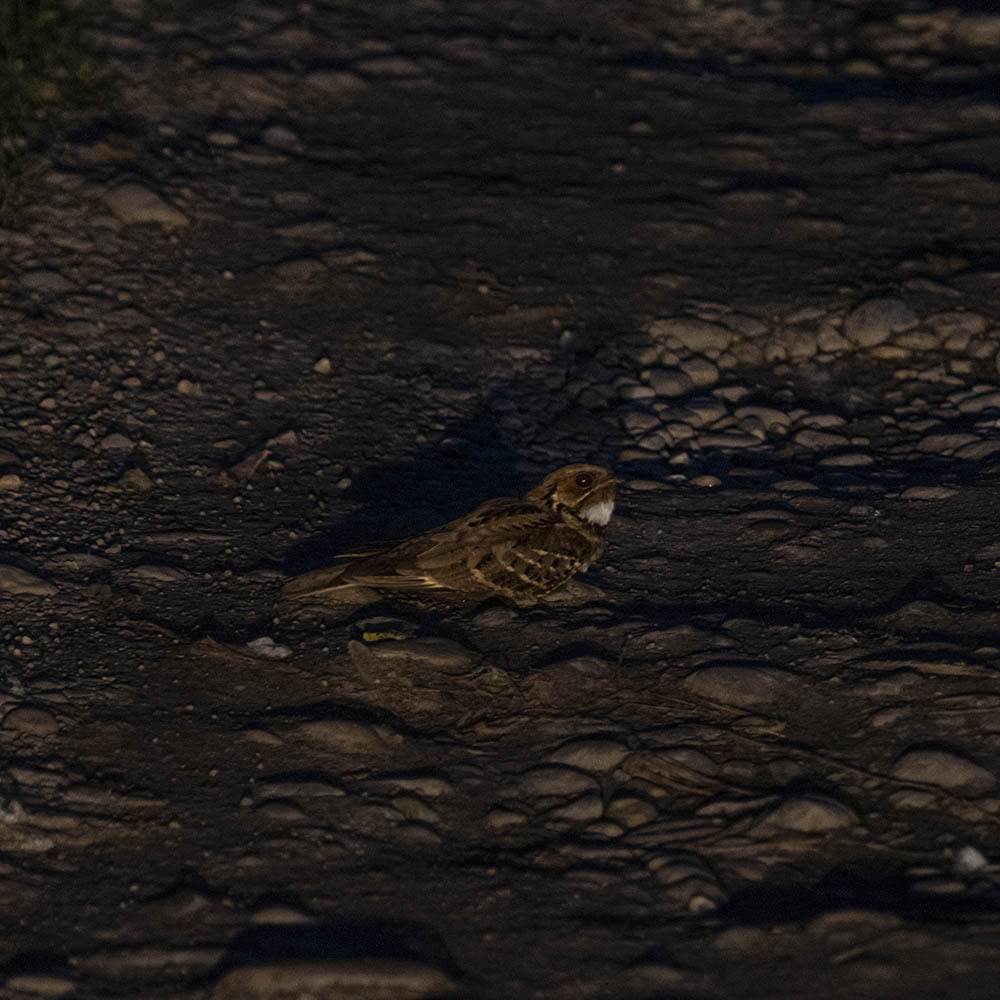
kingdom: Animalia
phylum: Chordata
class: Aves
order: Caprimulgiformes
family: Caprimulgidae
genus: Caprimulgus
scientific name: Caprimulgus macrurus
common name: Large-tailed nightjar
